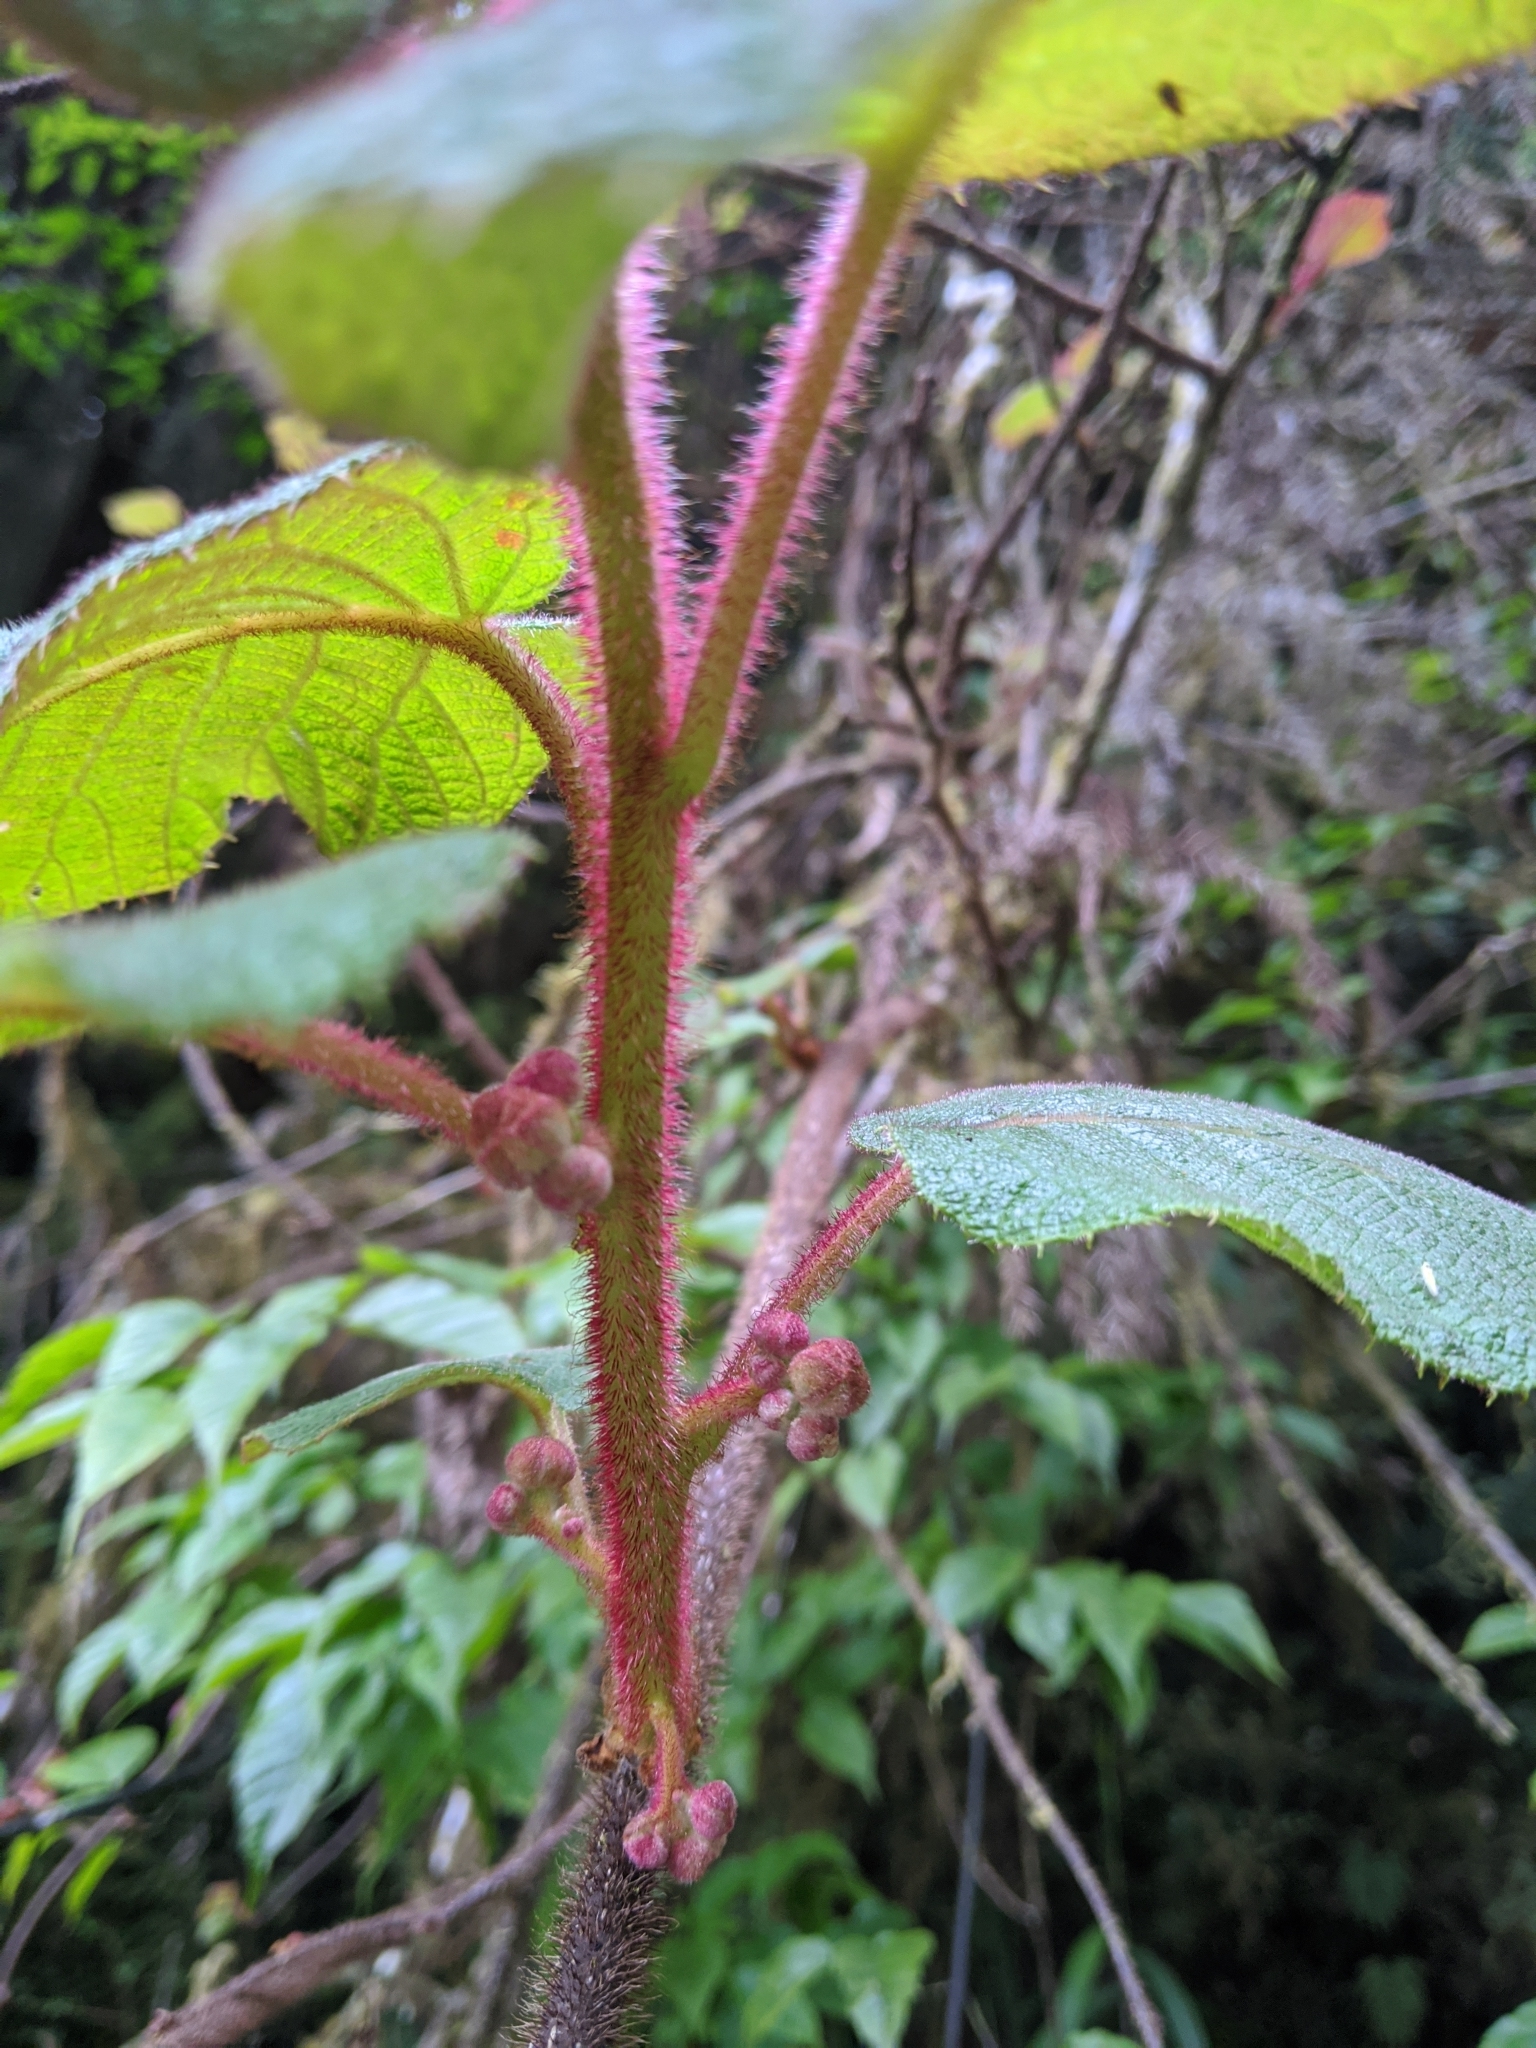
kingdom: Plantae
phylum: Tracheophyta
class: Magnoliopsida
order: Ericales
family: Actinidiaceae
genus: Actinidia
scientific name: Actinidia chinensis
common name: Kiwi
